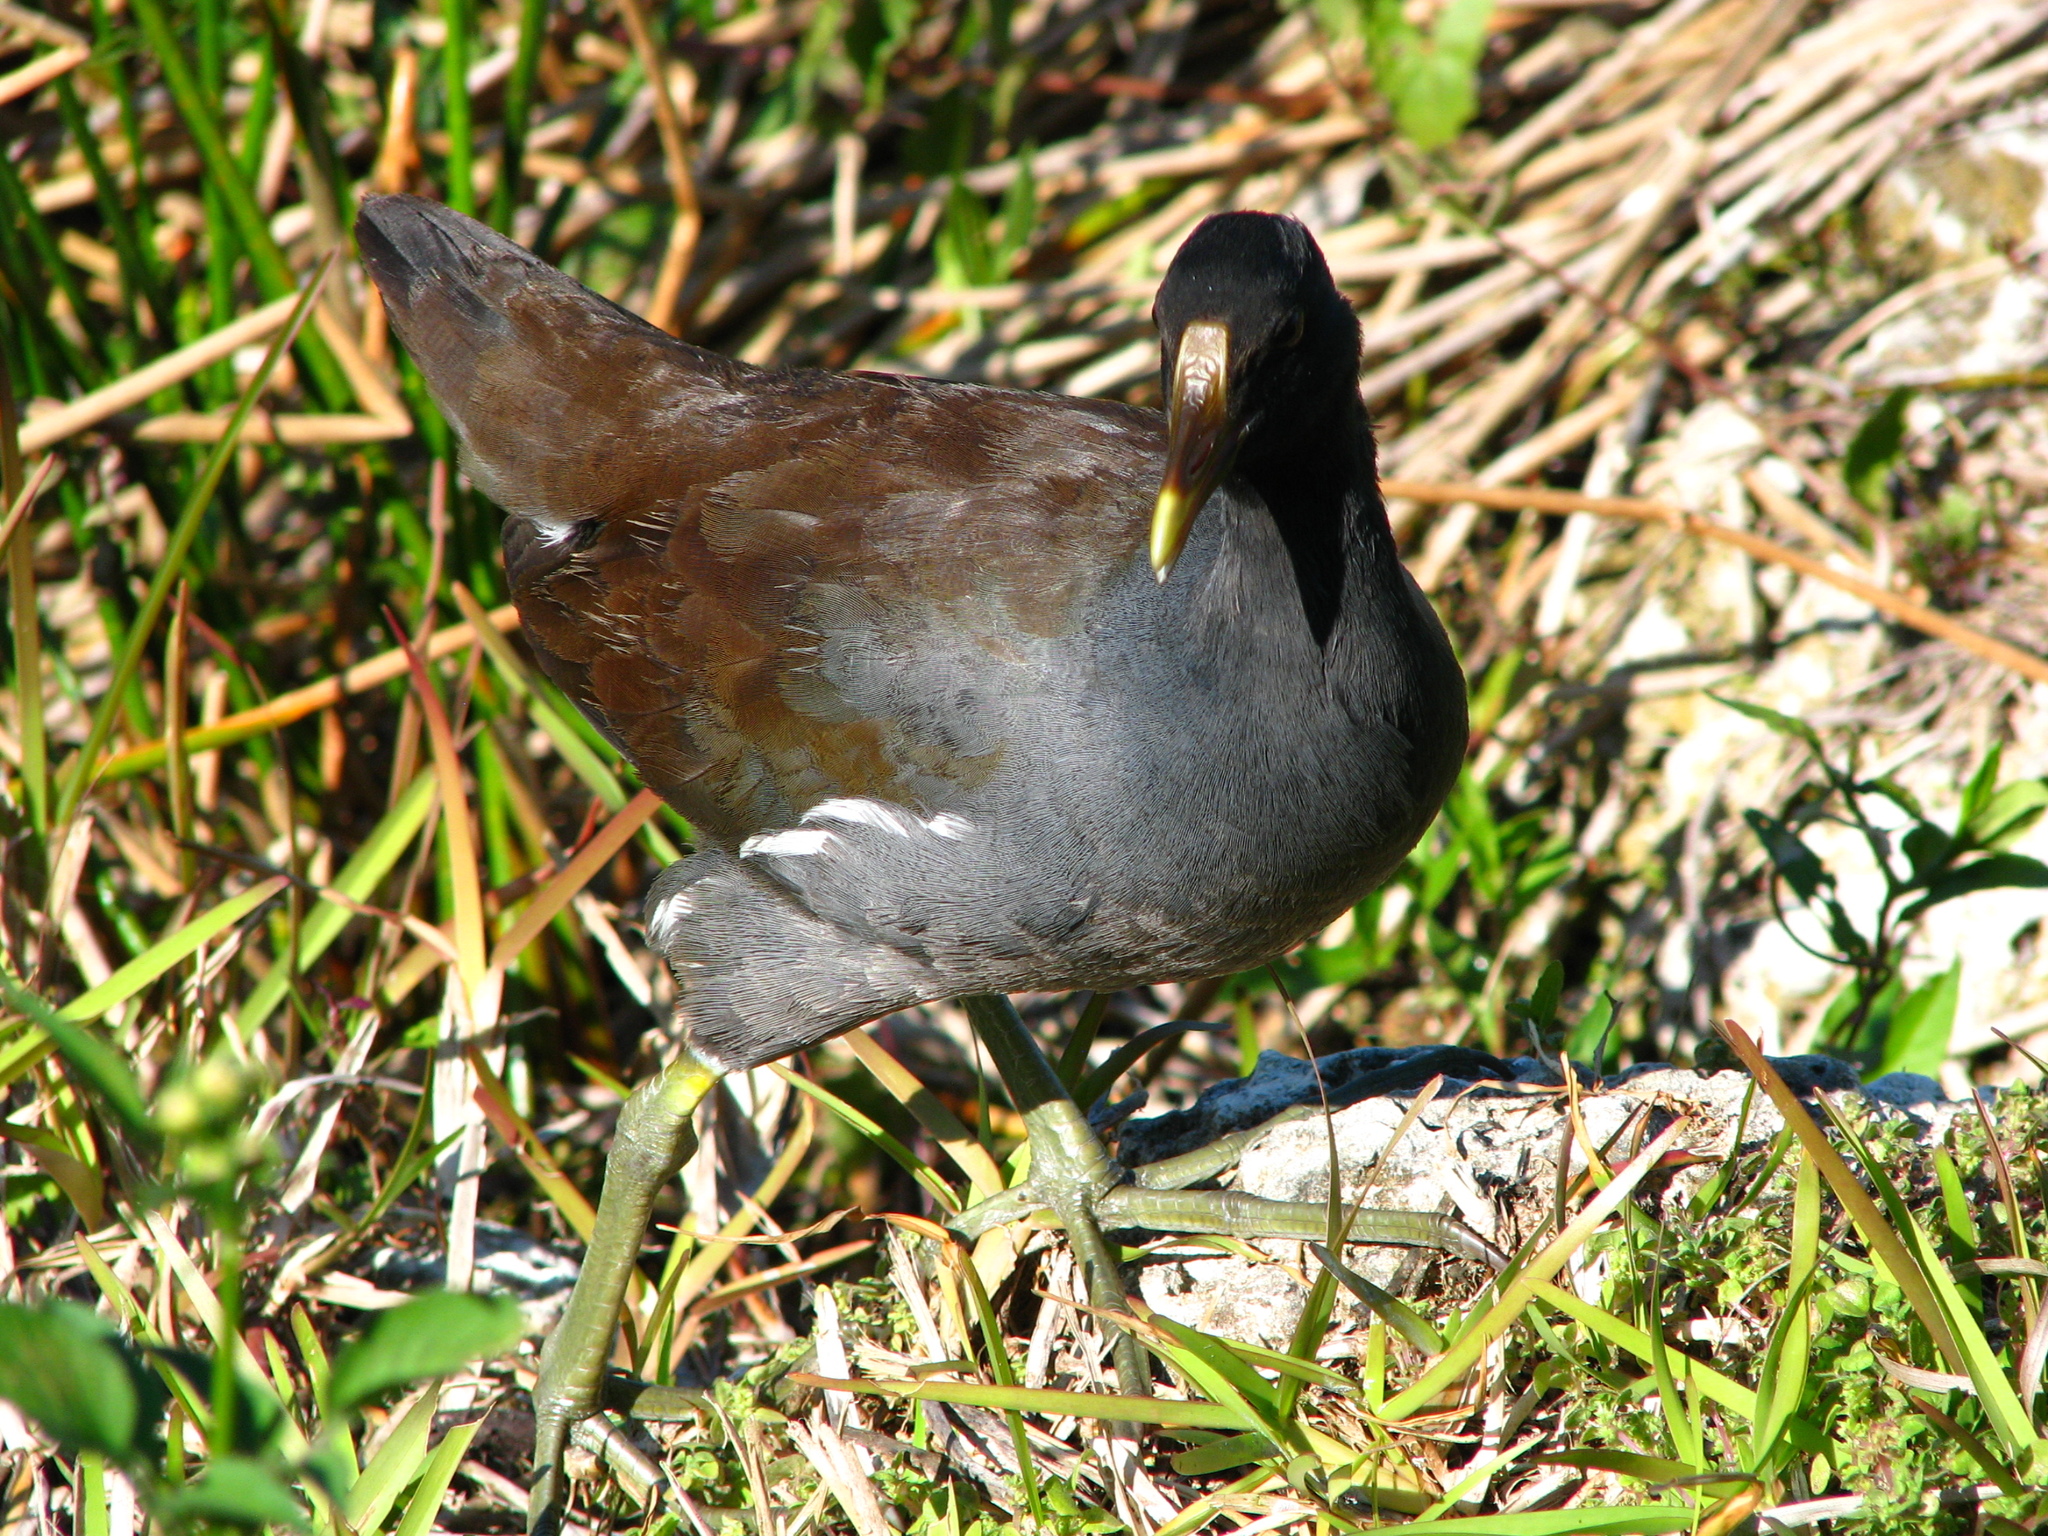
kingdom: Animalia
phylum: Chordata
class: Aves
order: Gruiformes
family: Rallidae
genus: Gallinula
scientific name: Gallinula chloropus
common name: Common moorhen
